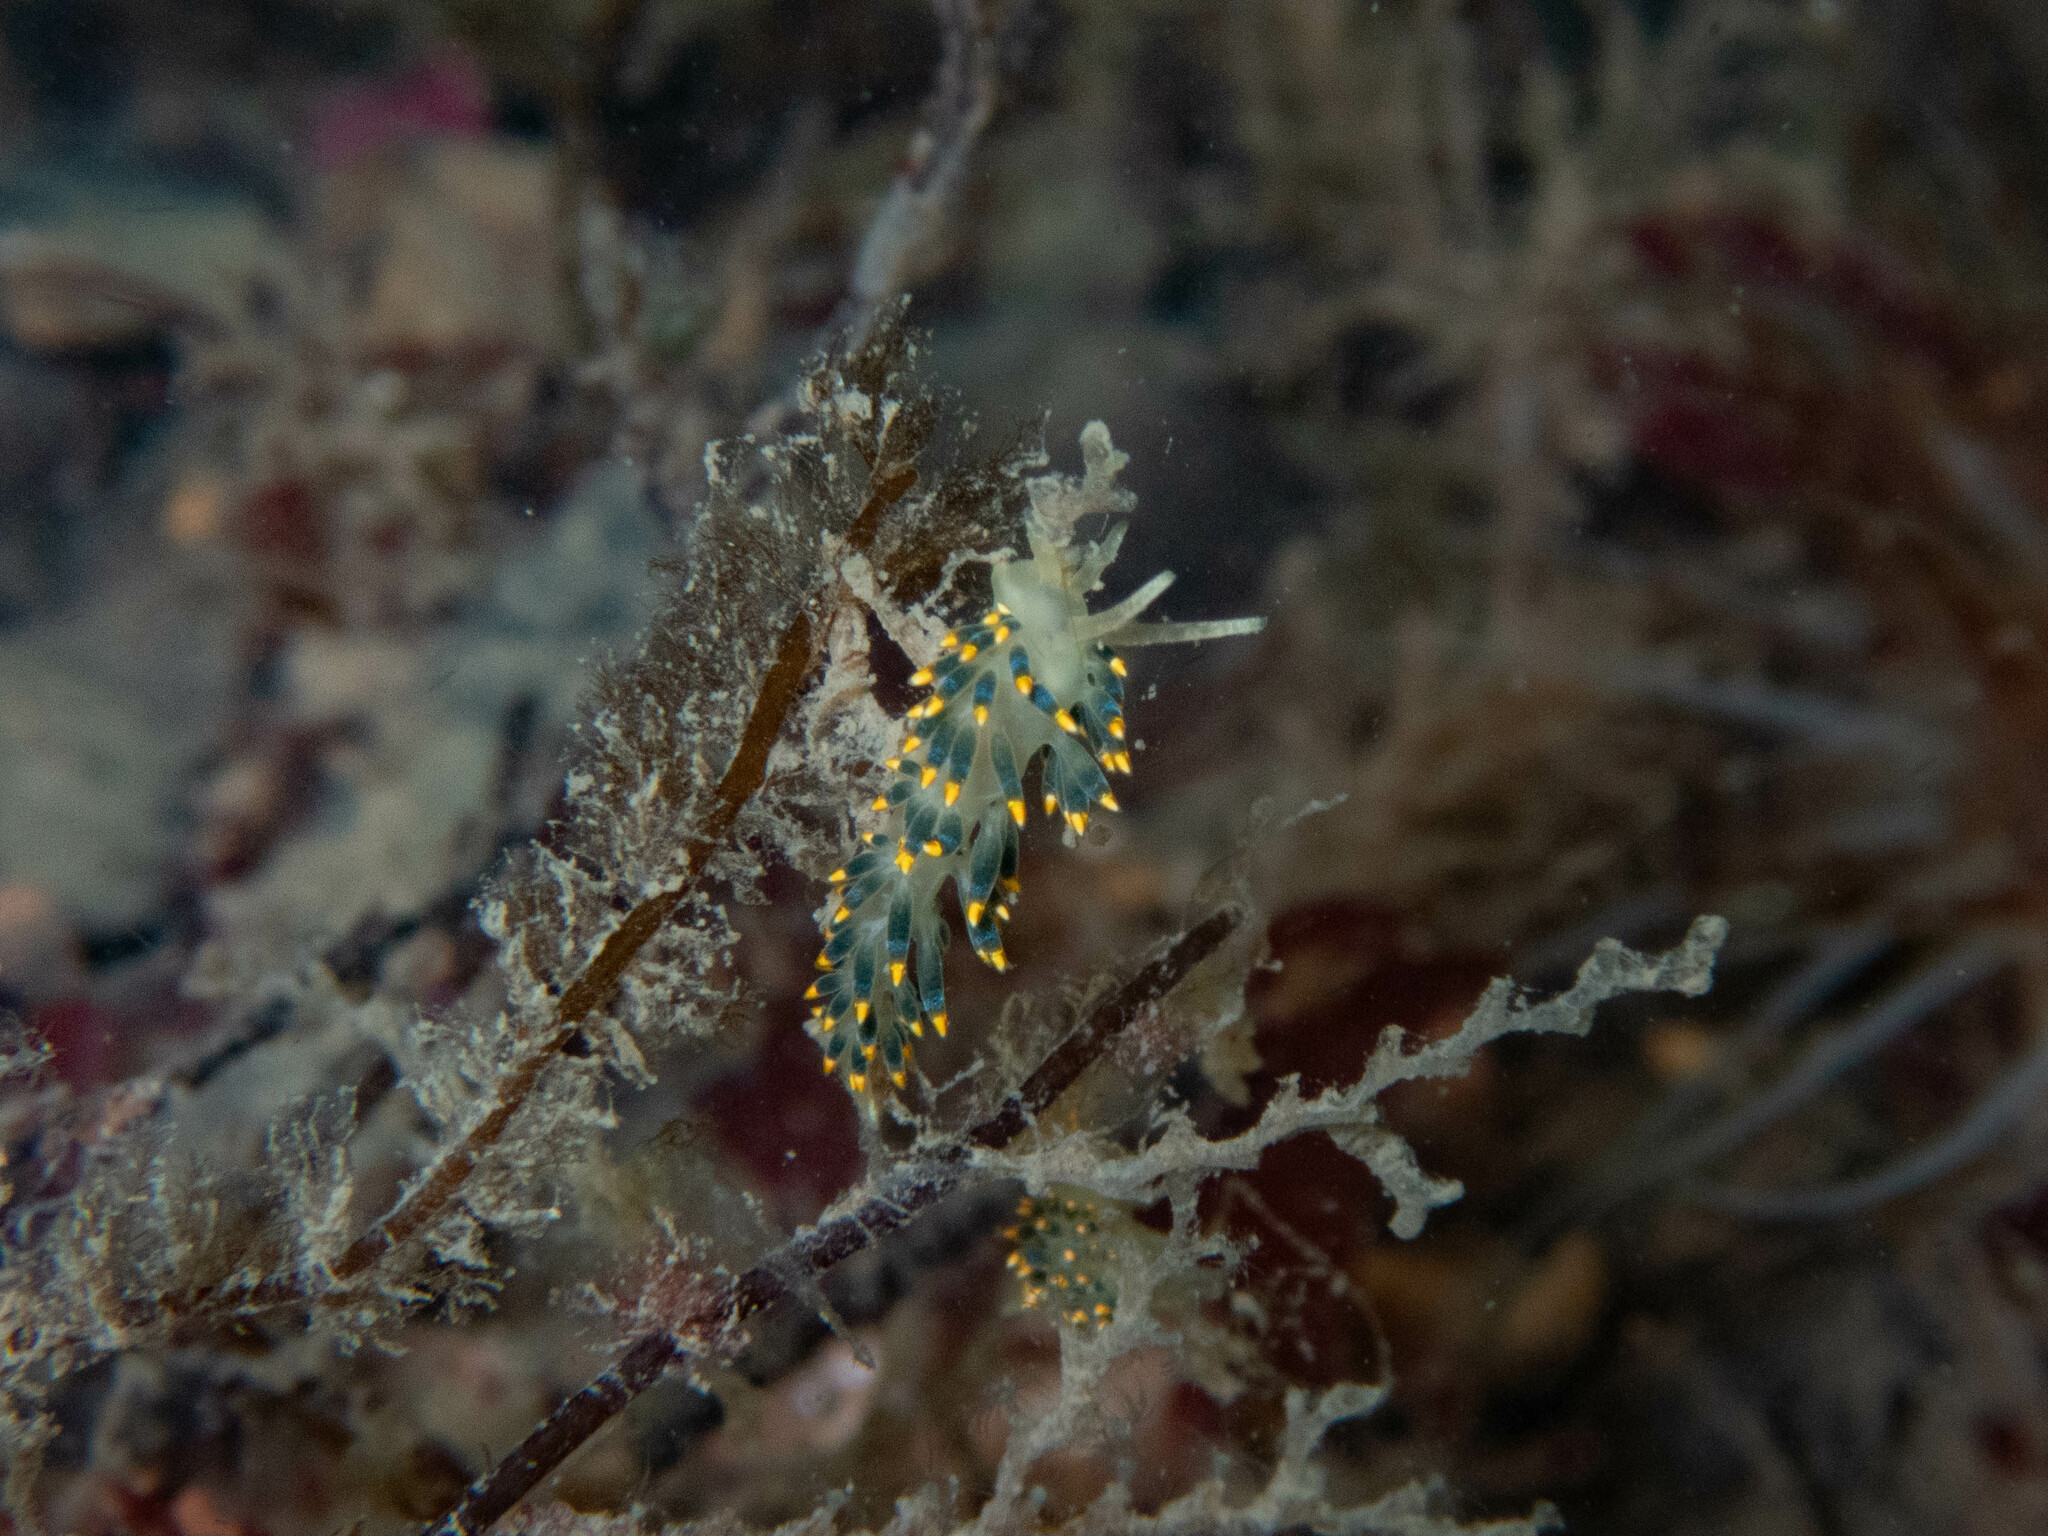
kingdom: Animalia
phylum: Mollusca
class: Gastropoda
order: Nudibranchia
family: Trinchesiidae
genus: Trinchesia
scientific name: Trinchesia cuanensis
